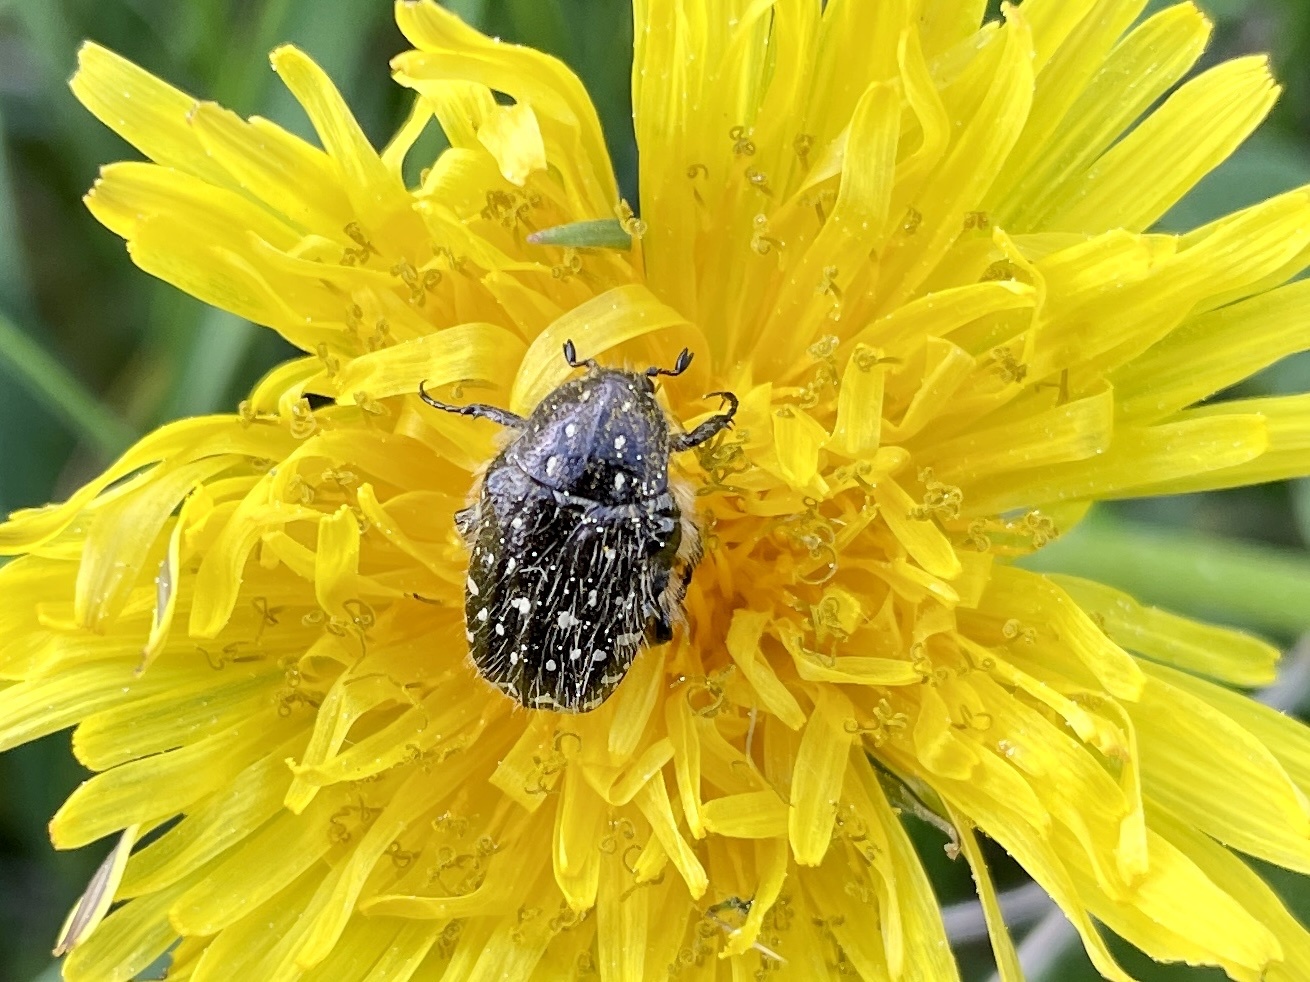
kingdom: Animalia
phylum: Arthropoda
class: Insecta
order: Coleoptera
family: Scarabaeidae
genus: Oxythyrea
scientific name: Oxythyrea funesta
